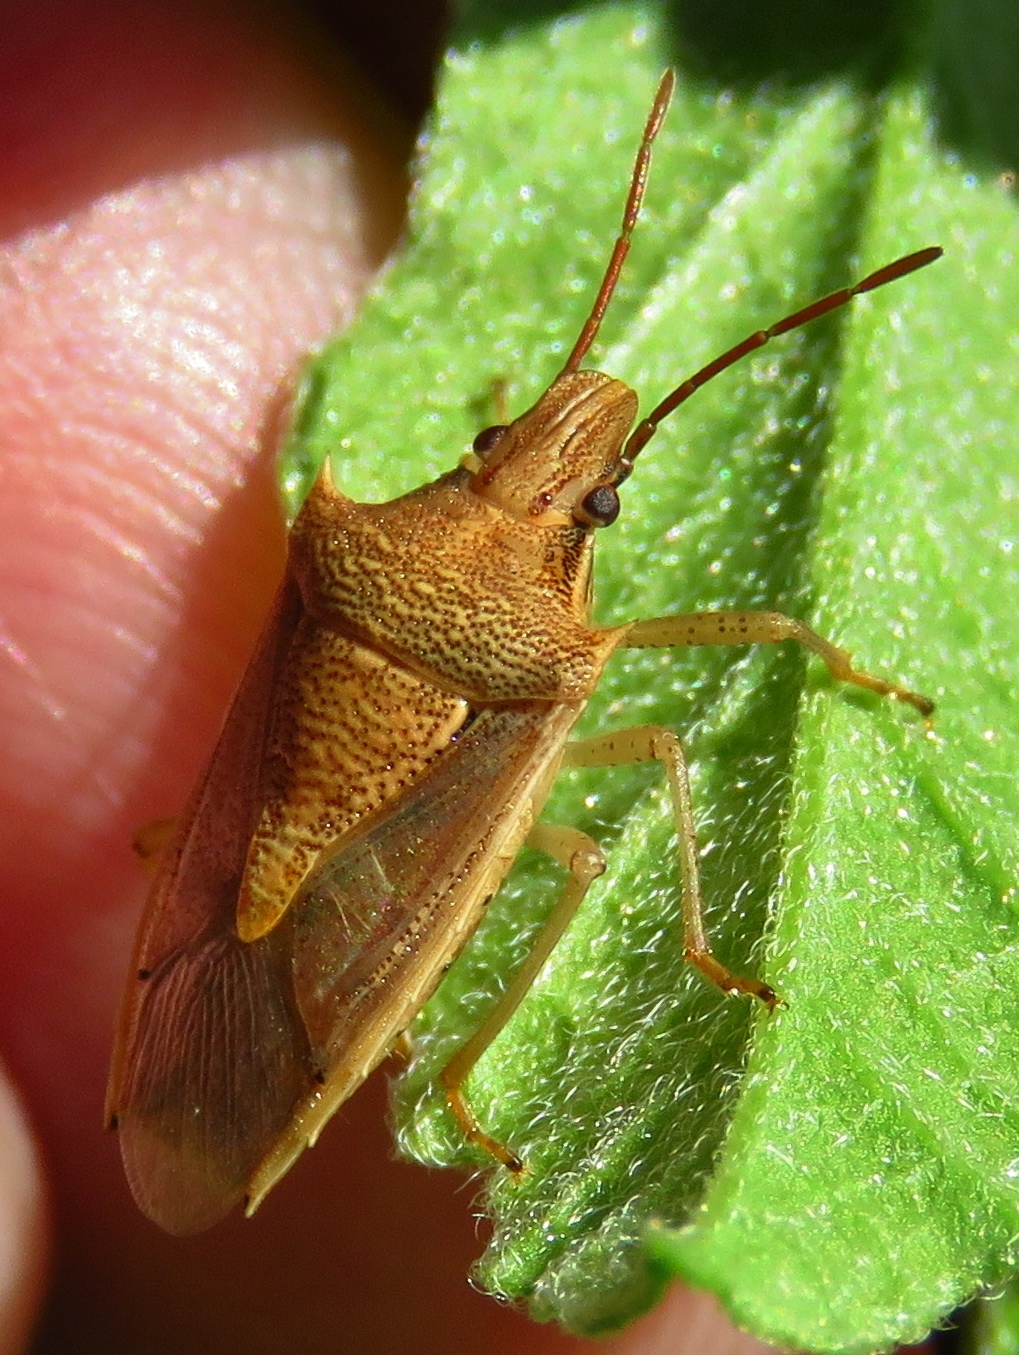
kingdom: Animalia
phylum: Arthropoda
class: Insecta
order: Hemiptera
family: Pentatomidae
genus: Oebalus
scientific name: Oebalus pugnax
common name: Rice stink bug
